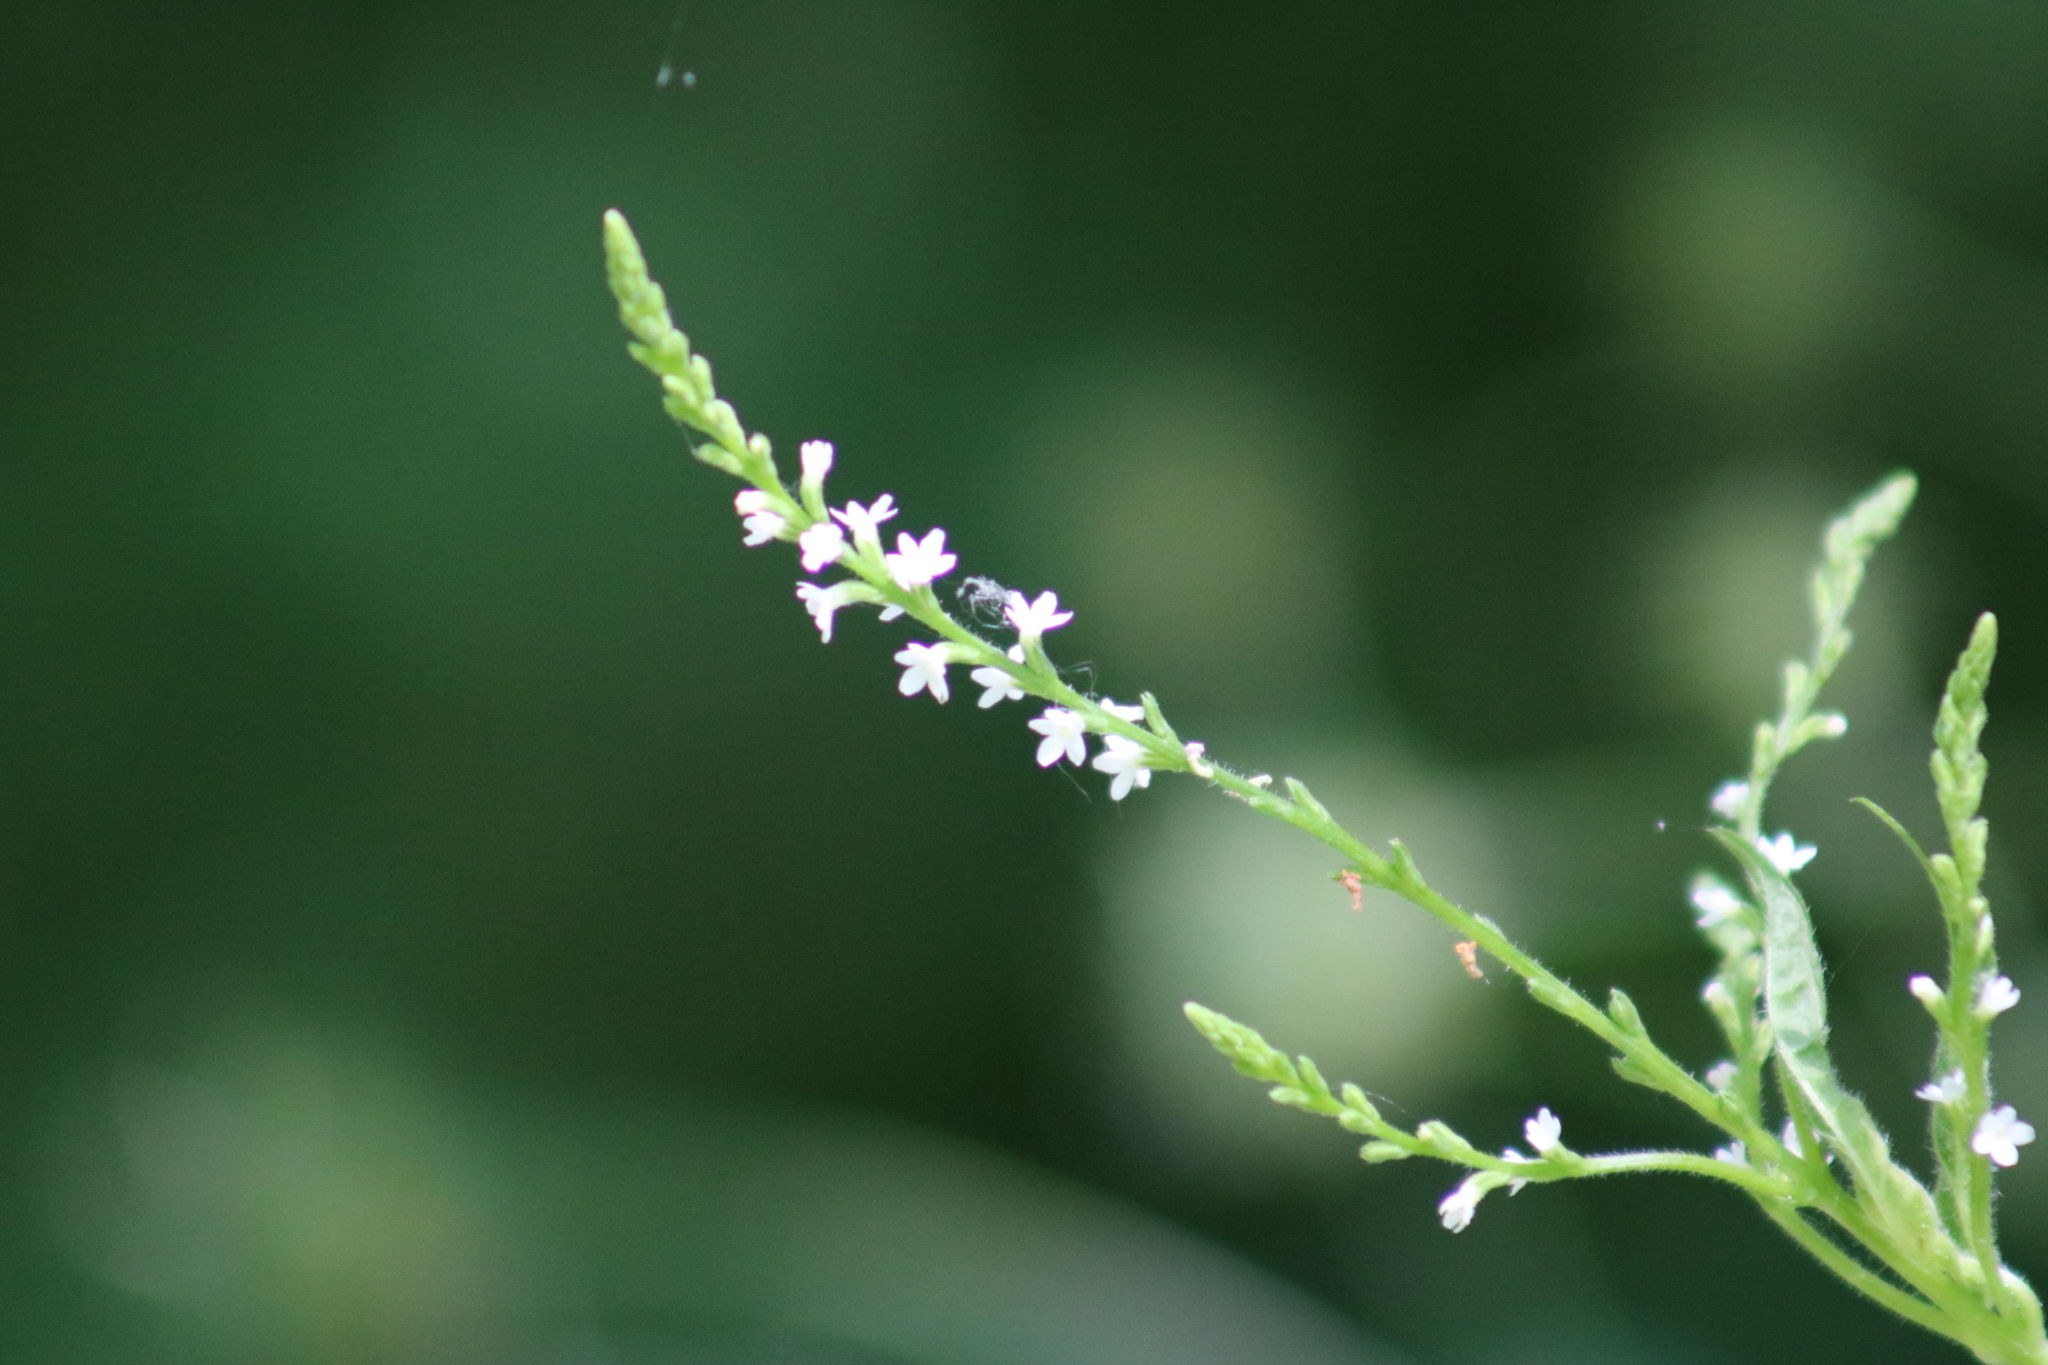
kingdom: Plantae
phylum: Tracheophyta
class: Magnoliopsida
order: Lamiales
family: Verbenaceae
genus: Verbena
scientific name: Verbena urticifolia
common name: Nettle-leaved vervain
